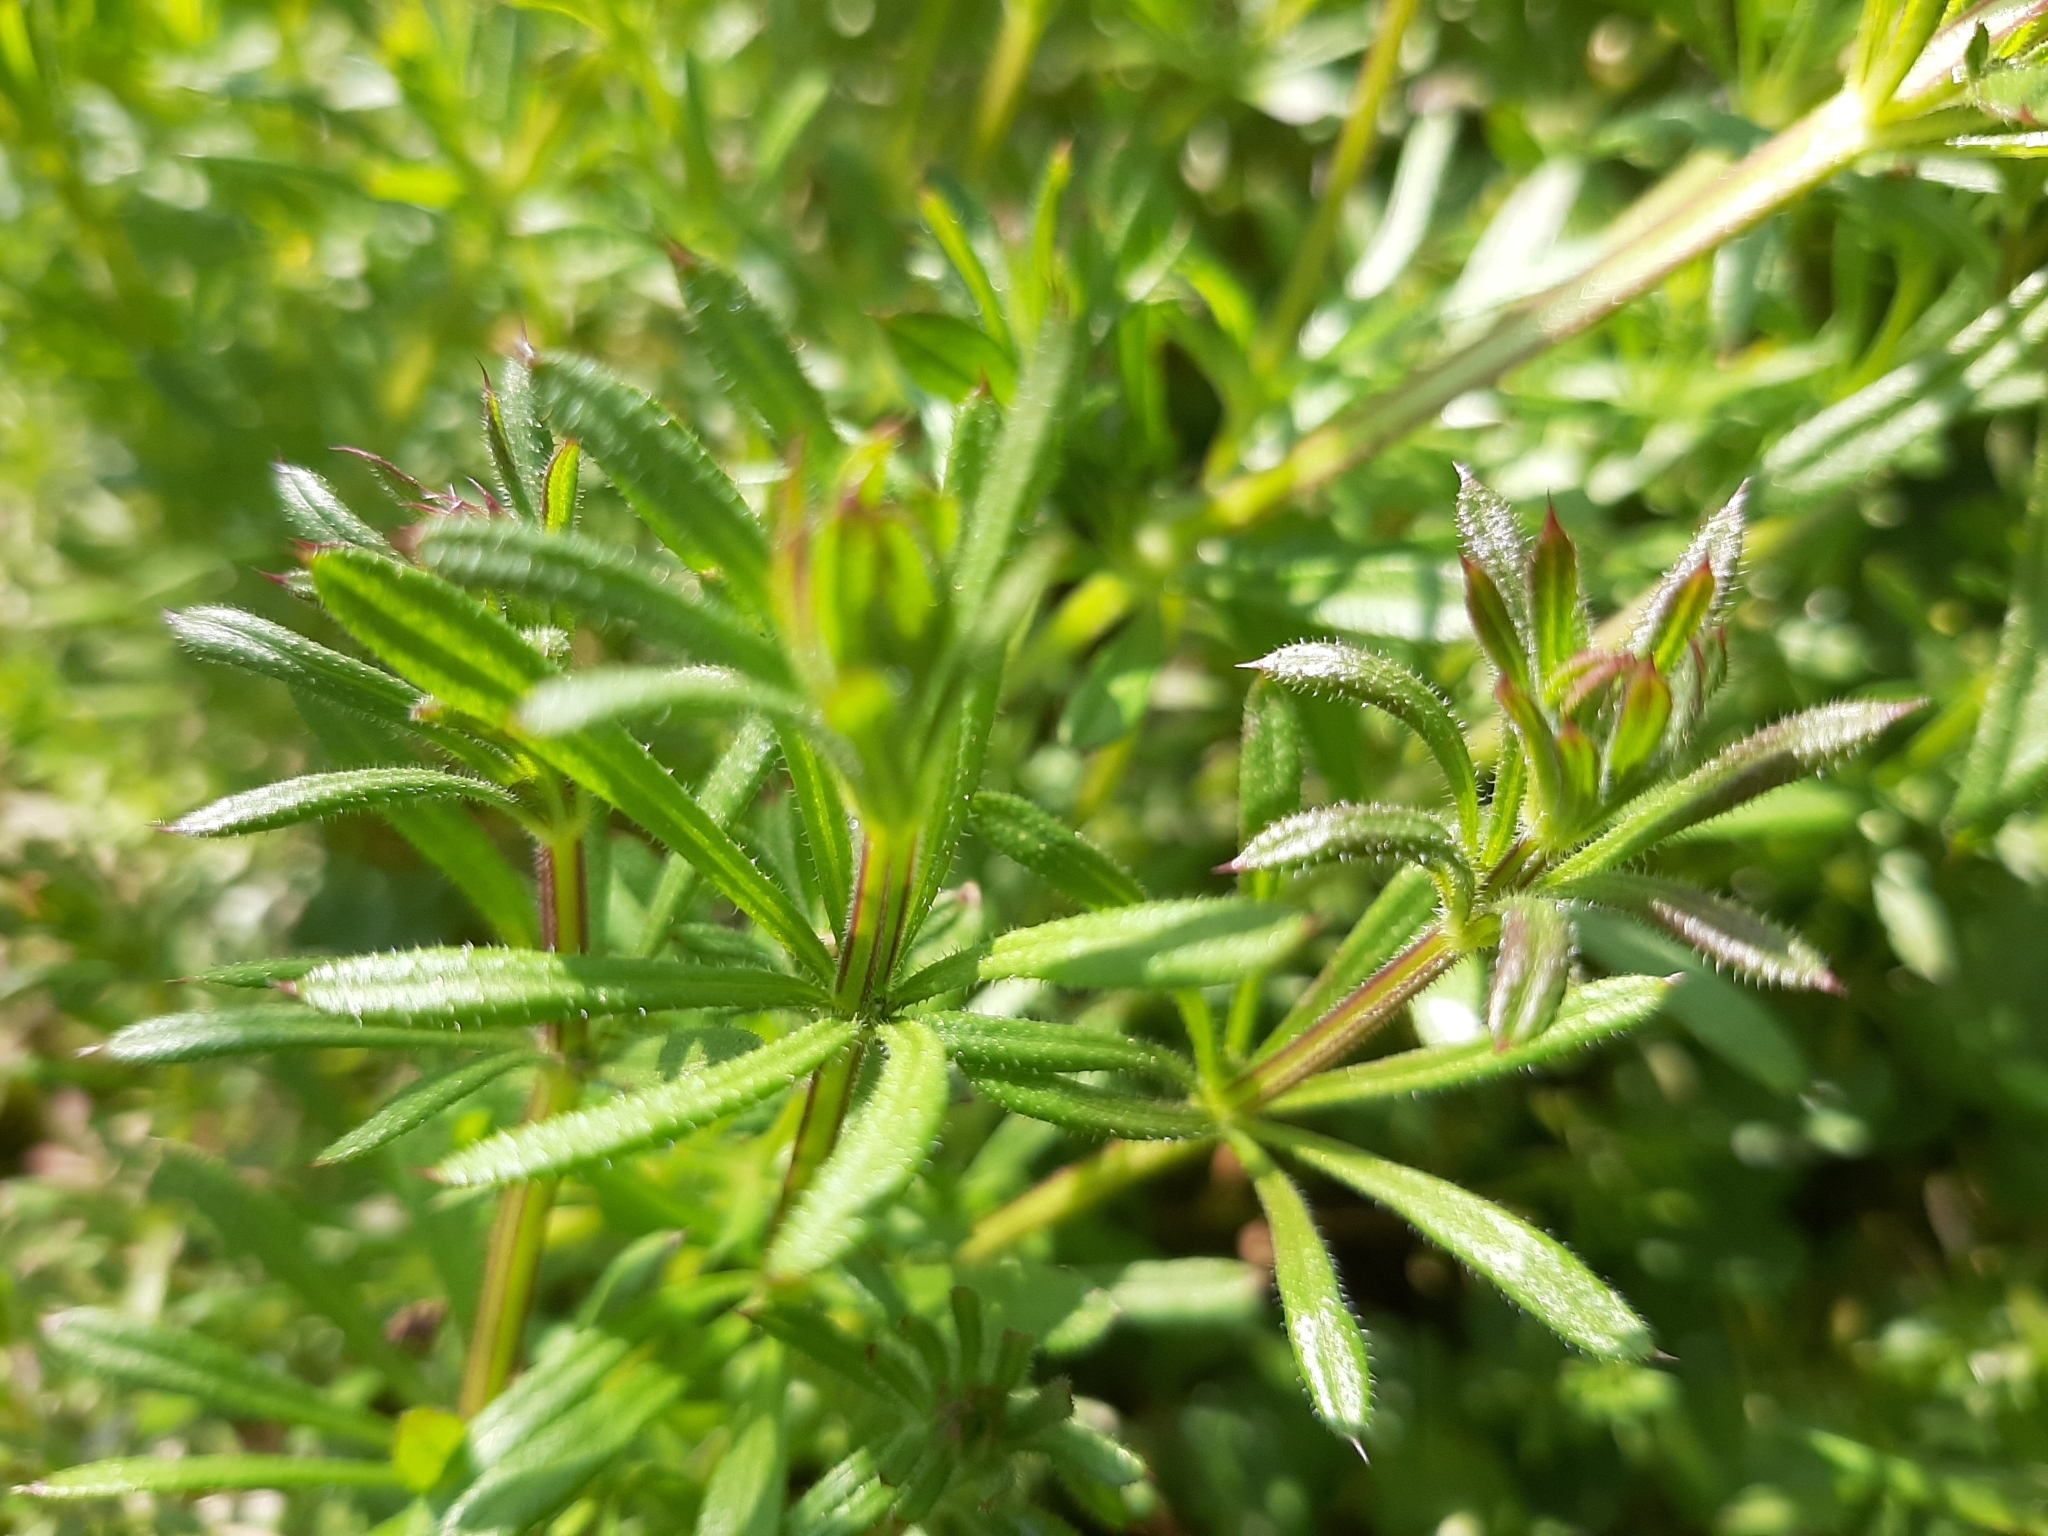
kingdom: Plantae
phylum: Tracheophyta
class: Magnoliopsida
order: Gentianales
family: Rubiaceae
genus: Galium
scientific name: Galium aparine
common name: Cleavers
